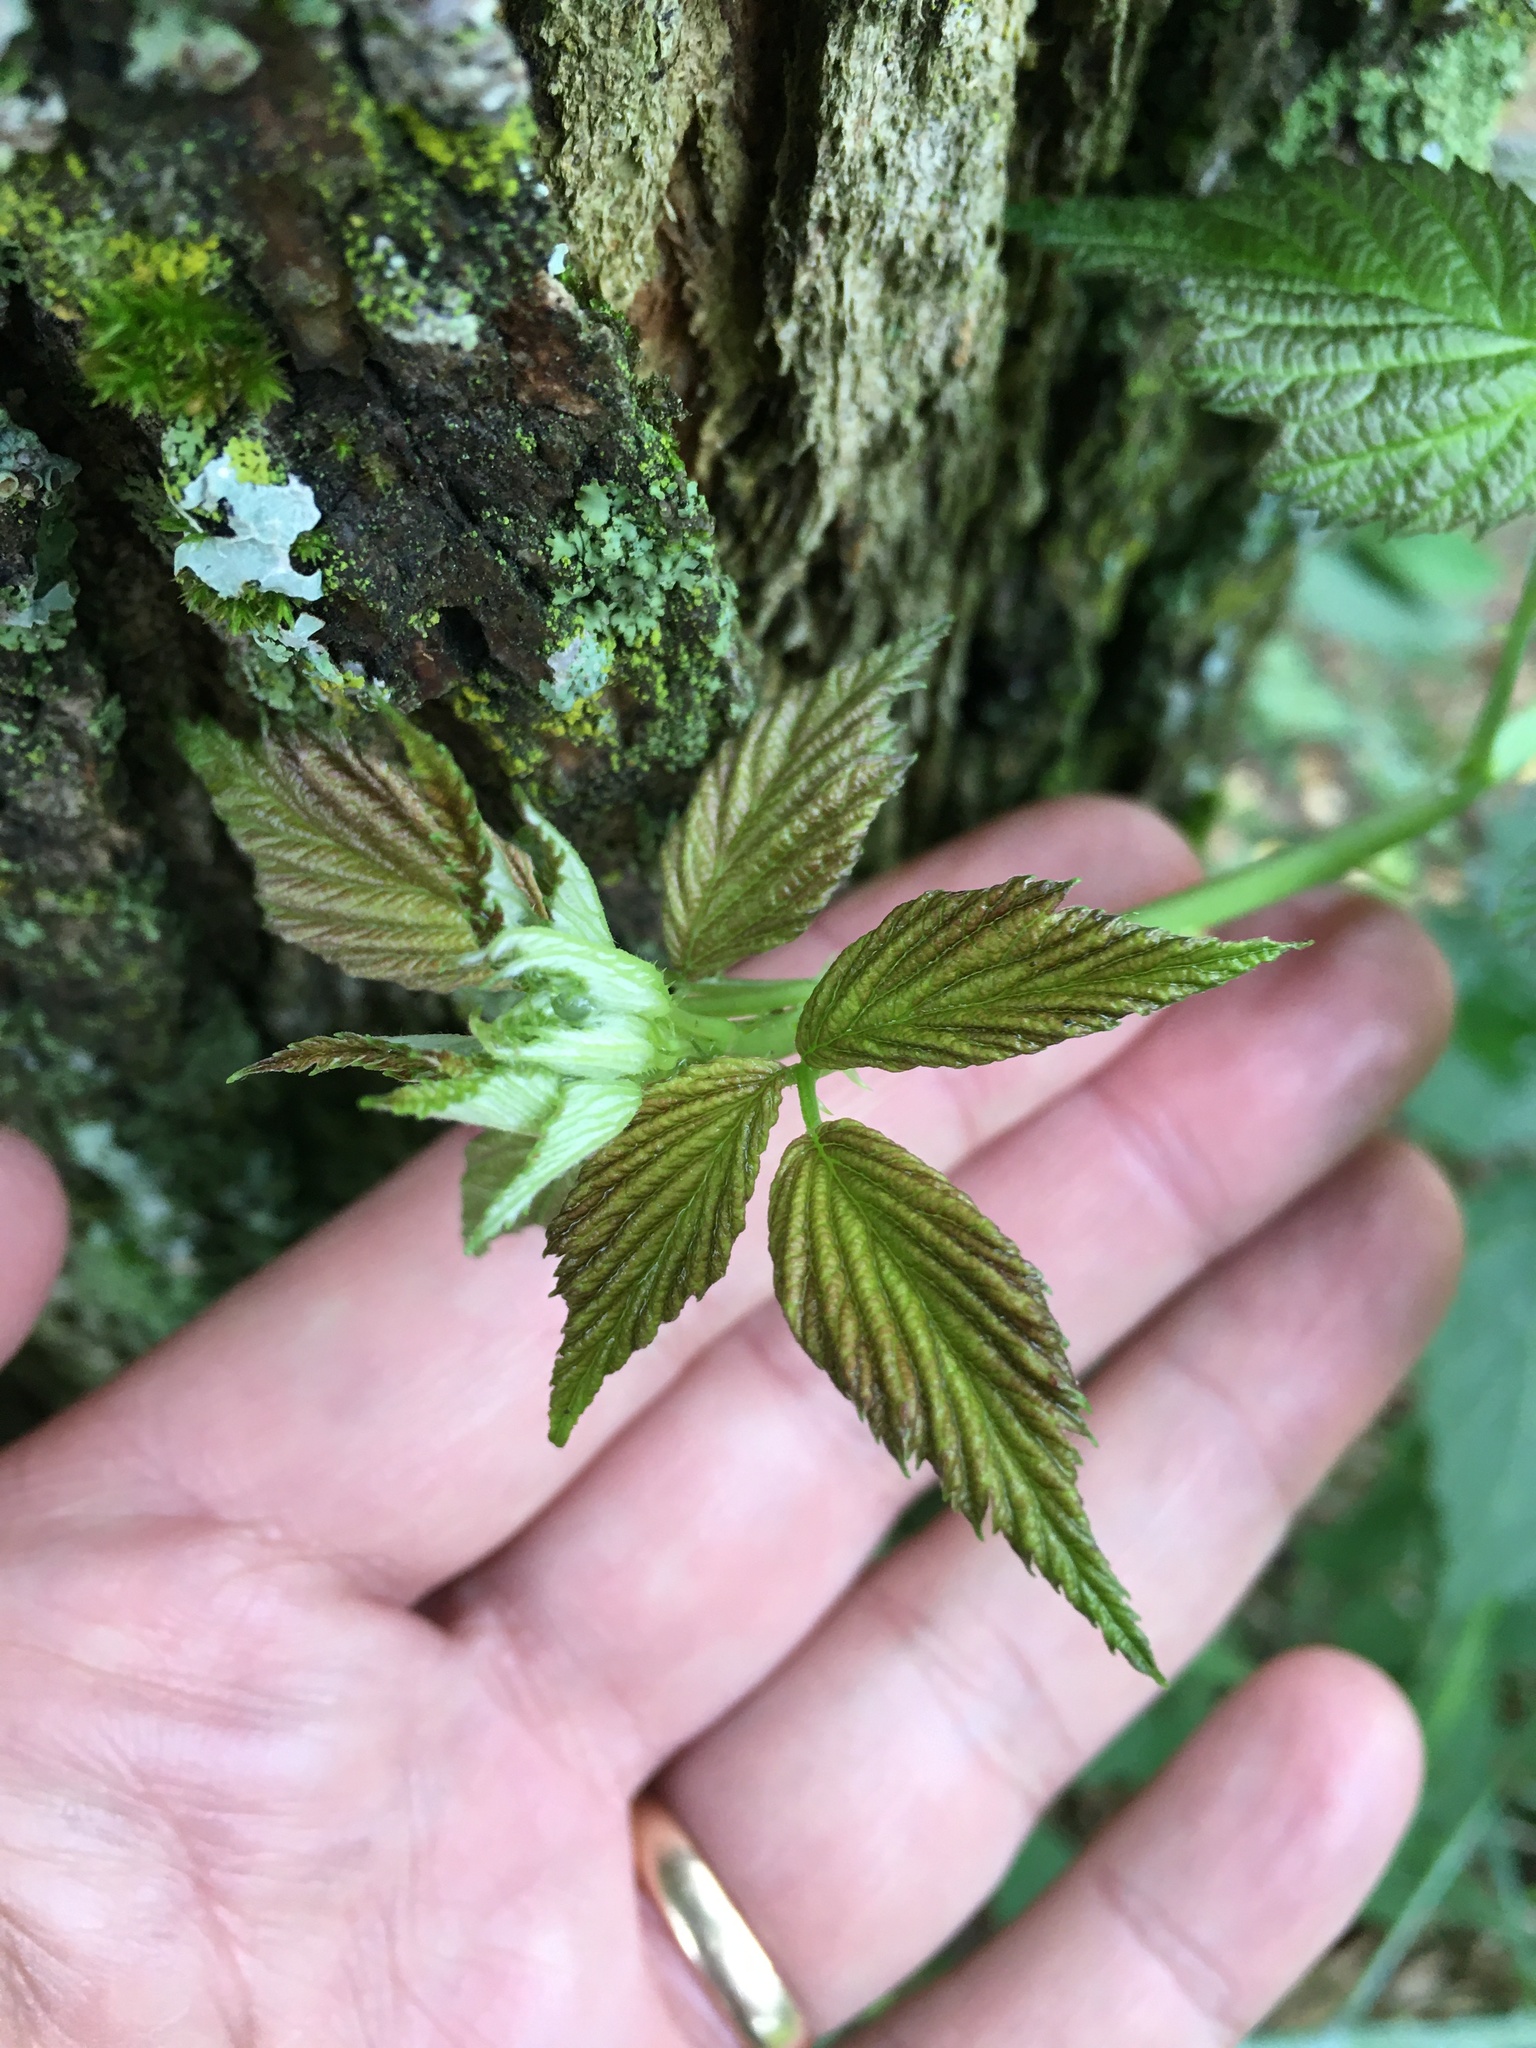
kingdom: Plantae
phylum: Tracheophyta
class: Magnoliopsida
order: Rosales
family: Rosaceae
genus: Rubus
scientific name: Rubus occidentalis
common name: Black raspberry
